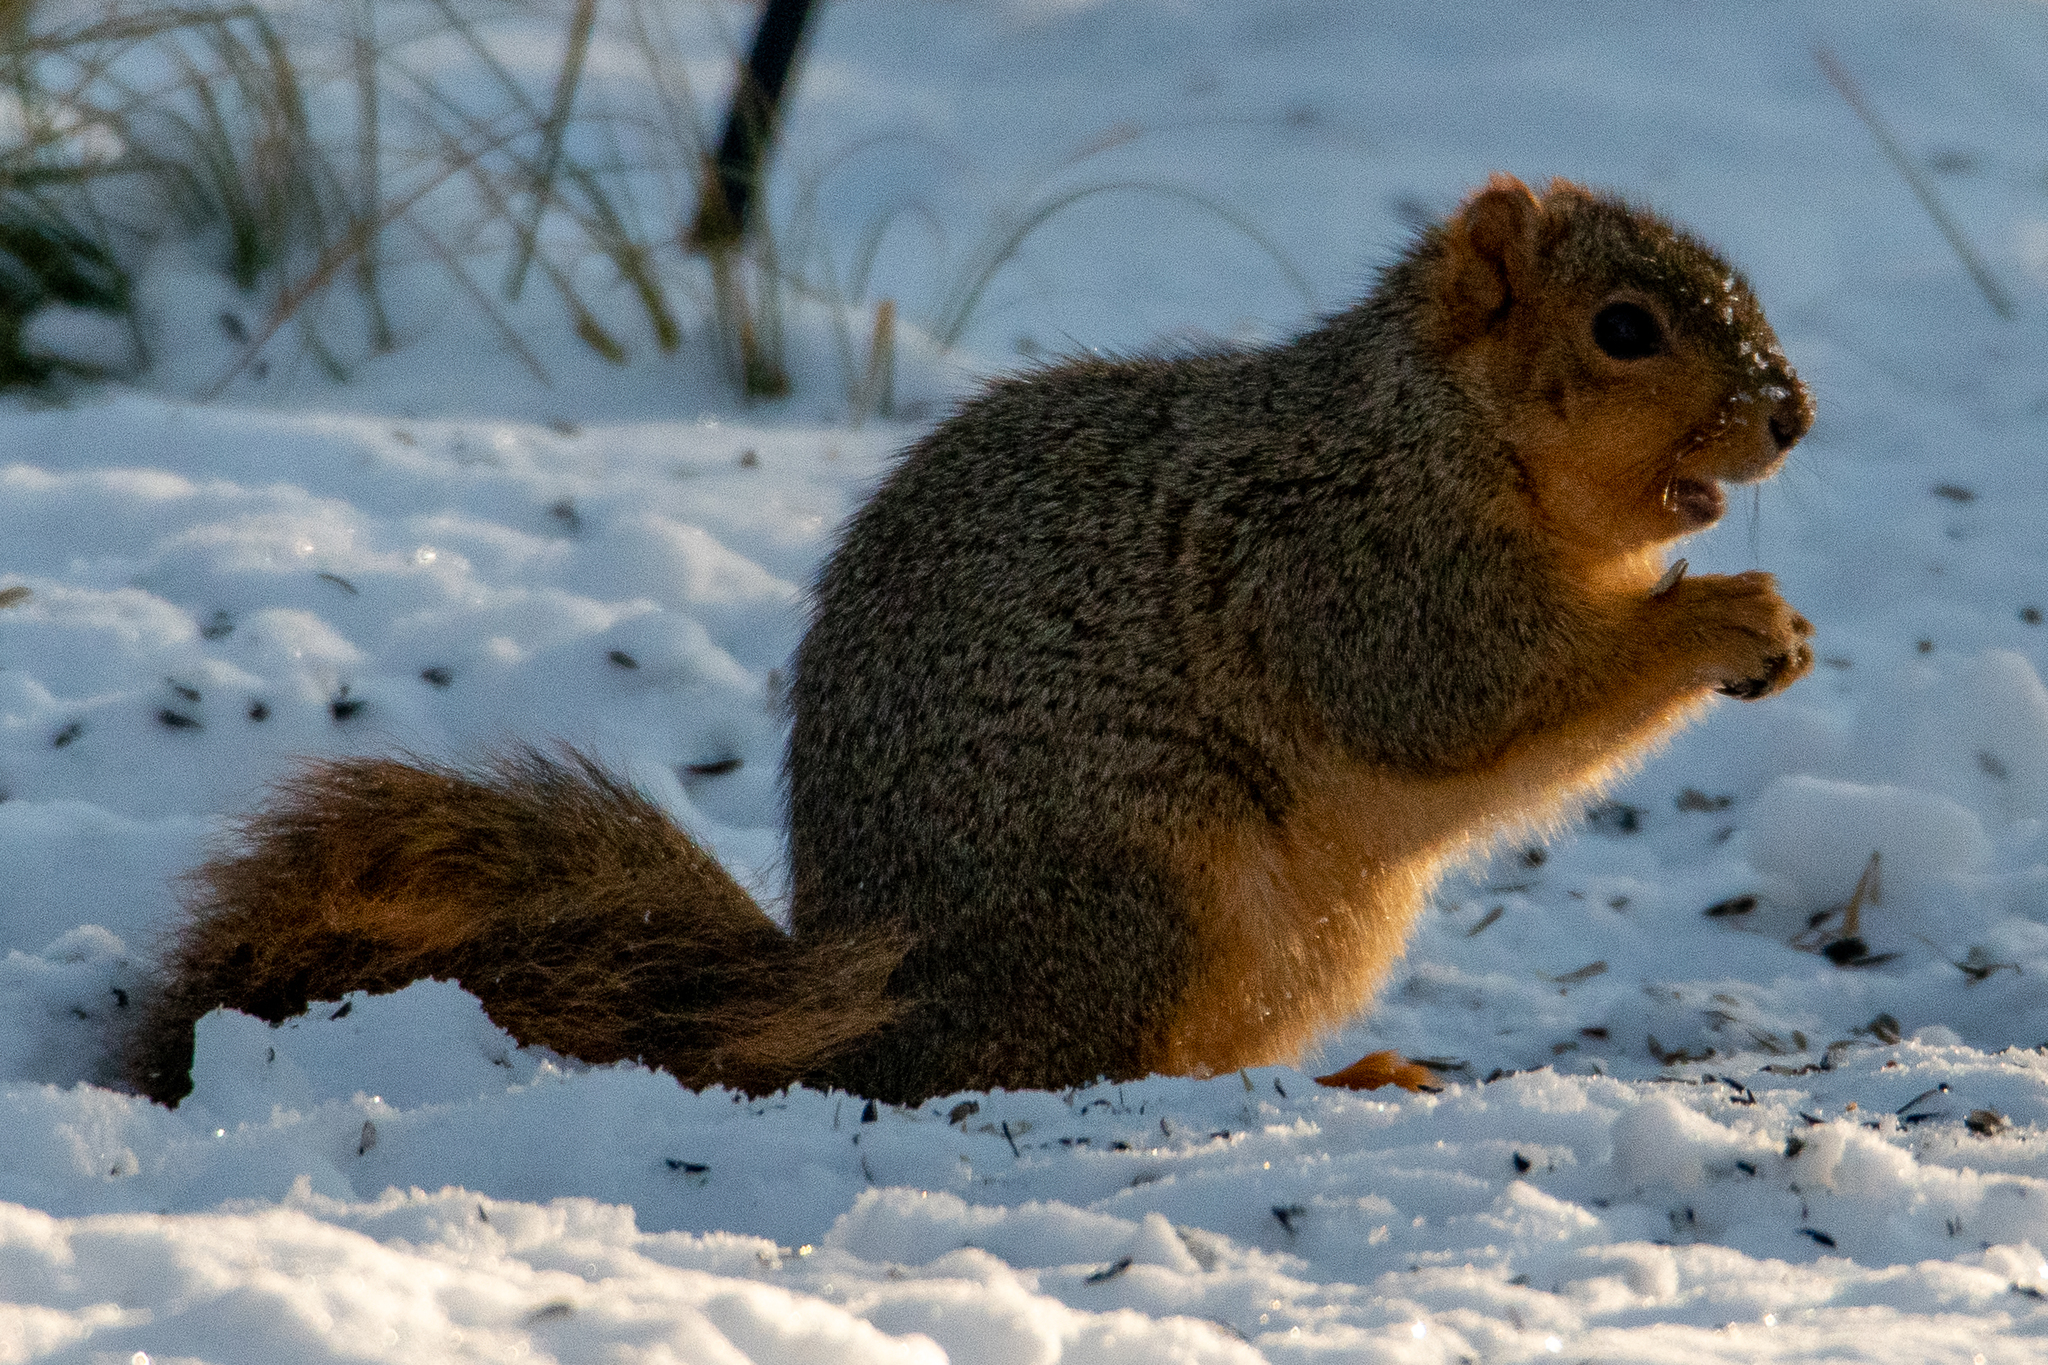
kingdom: Animalia
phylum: Chordata
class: Mammalia
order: Rodentia
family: Sciuridae
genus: Sciurus
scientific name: Sciurus niger
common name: Fox squirrel
